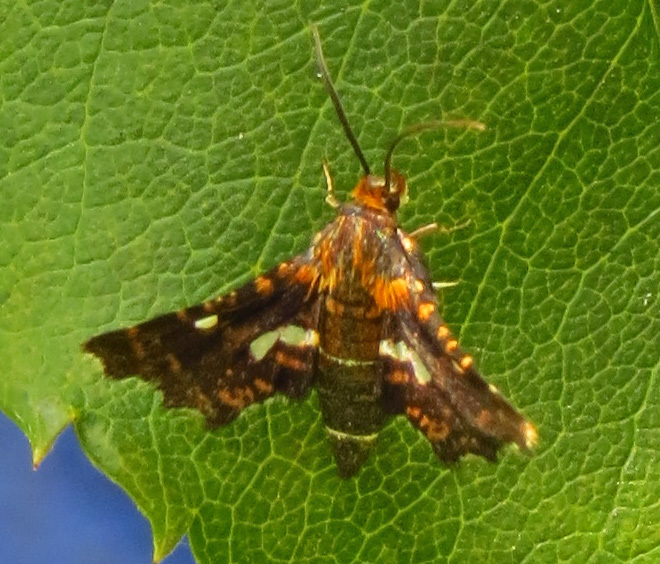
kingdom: Animalia
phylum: Arthropoda
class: Insecta
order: Lepidoptera
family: Thyrididae
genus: Thyris
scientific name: Thyris maculata
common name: Spotted thyris moth
